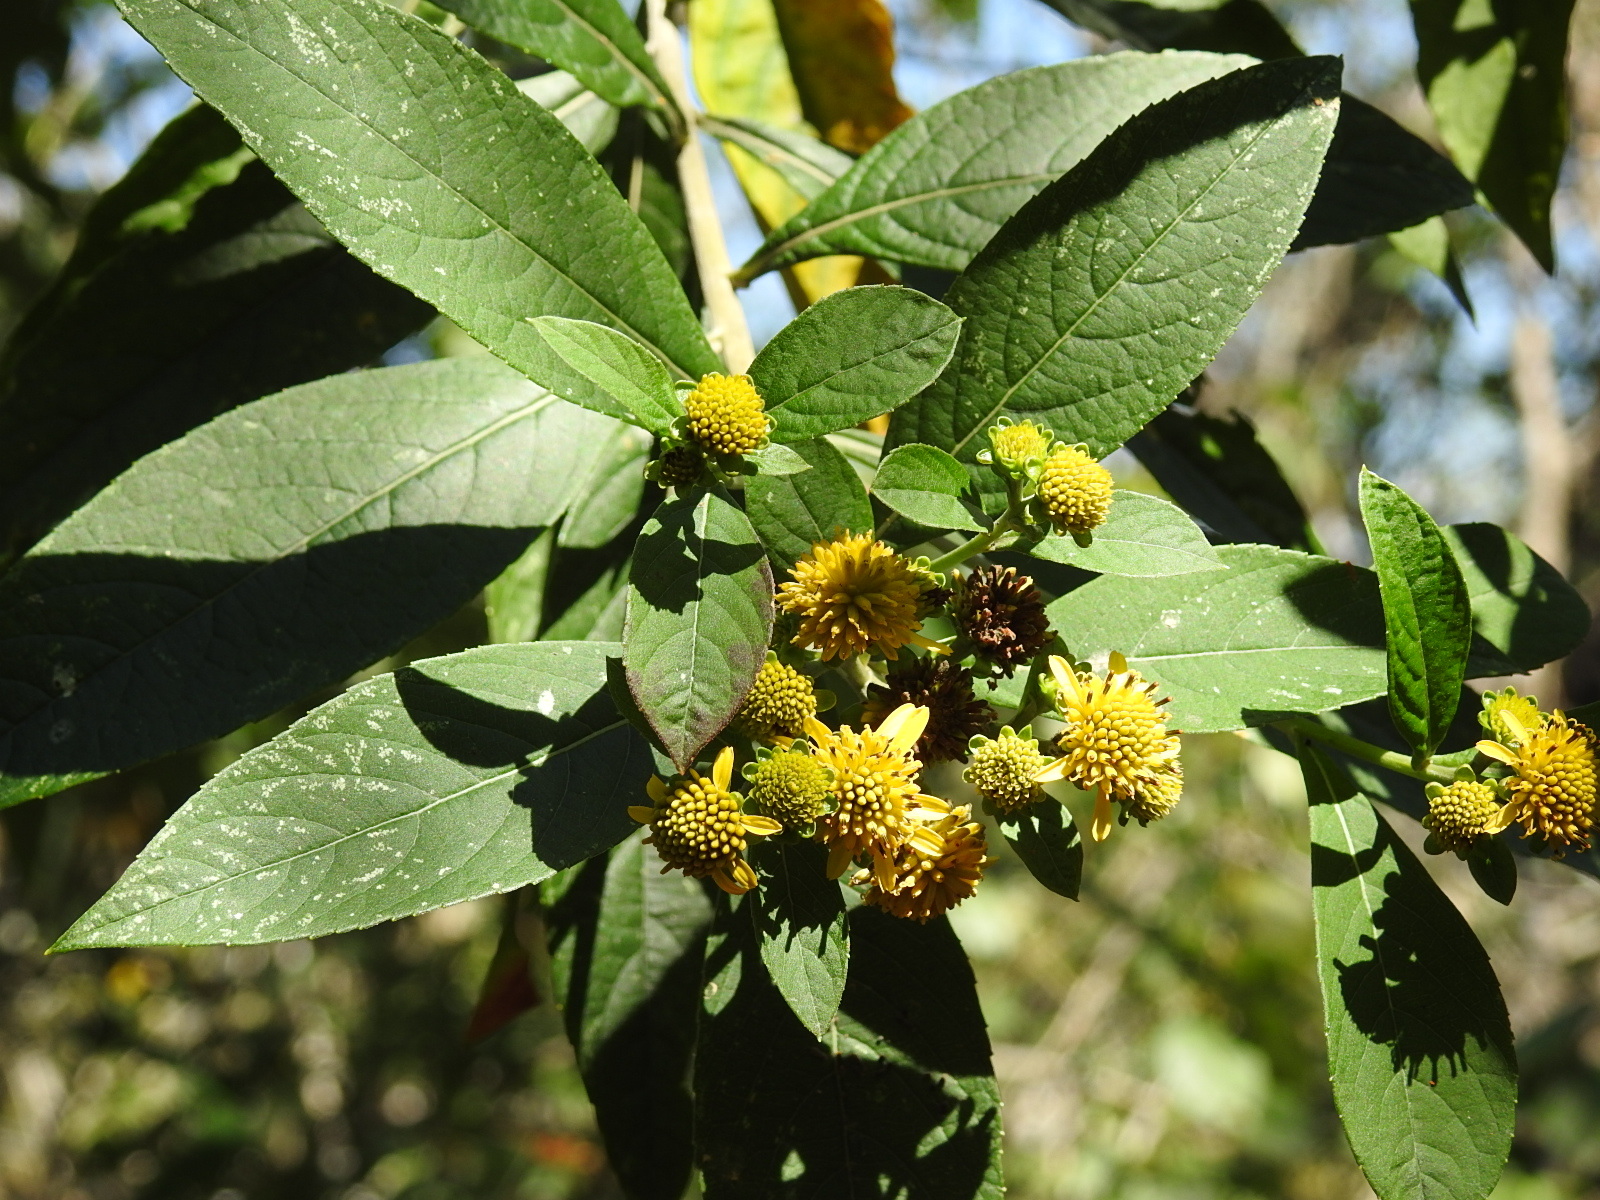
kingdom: Plantae
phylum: Tracheophyta
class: Magnoliopsida
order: Asterales
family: Asteraceae
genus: Verbesina
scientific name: Verbesina hypargyrea
